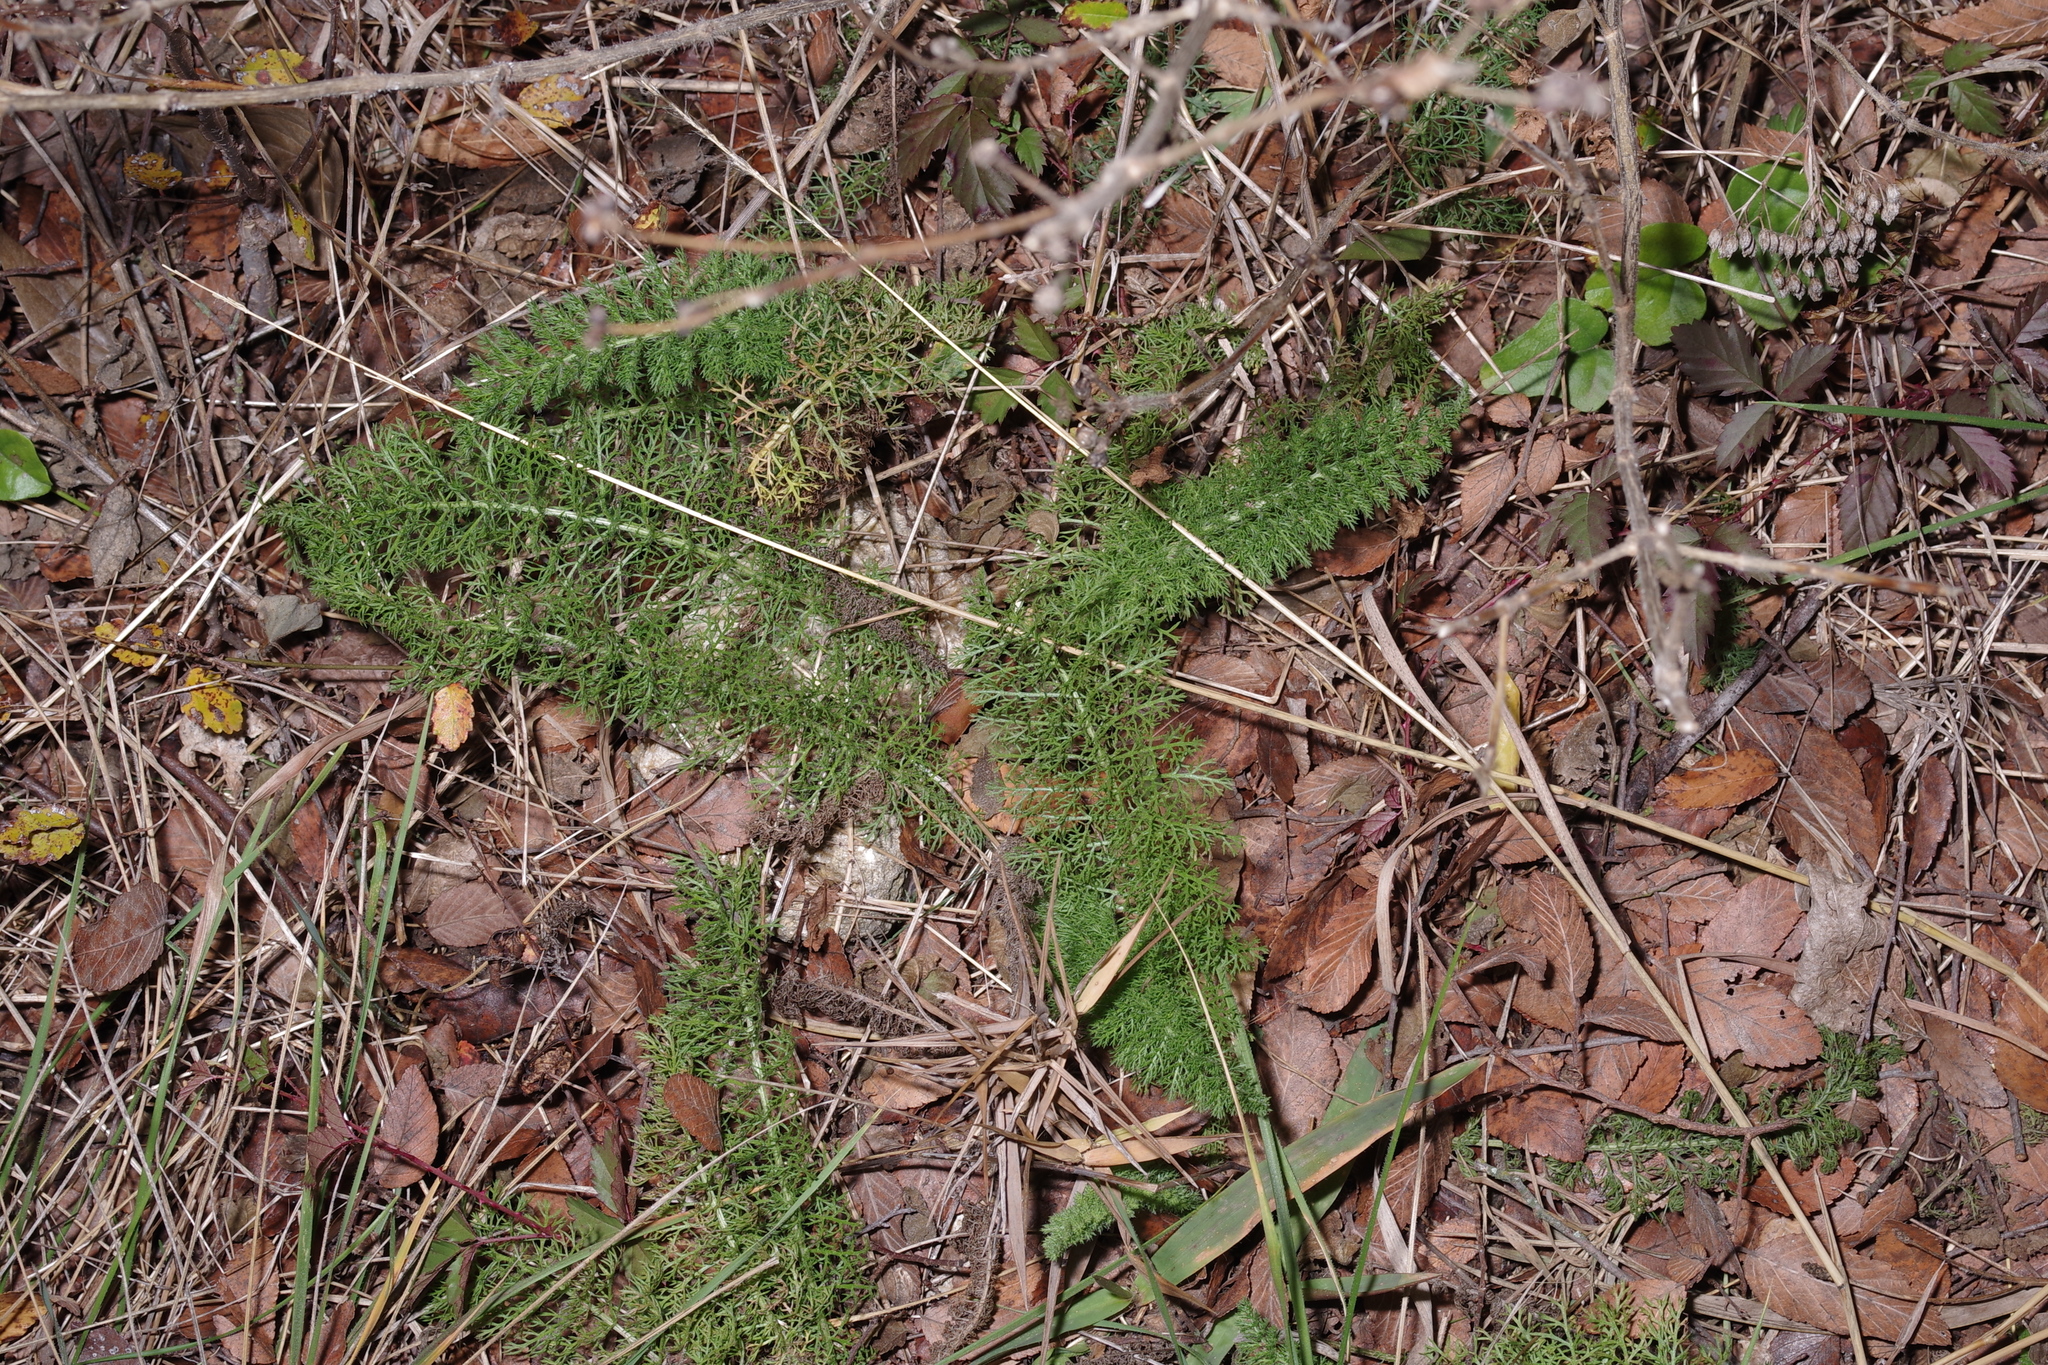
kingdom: Plantae
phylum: Tracheophyta
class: Magnoliopsida
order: Asterales
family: Asteraceae
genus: Achillea
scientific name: Achillea millefolium
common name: Yarrow
